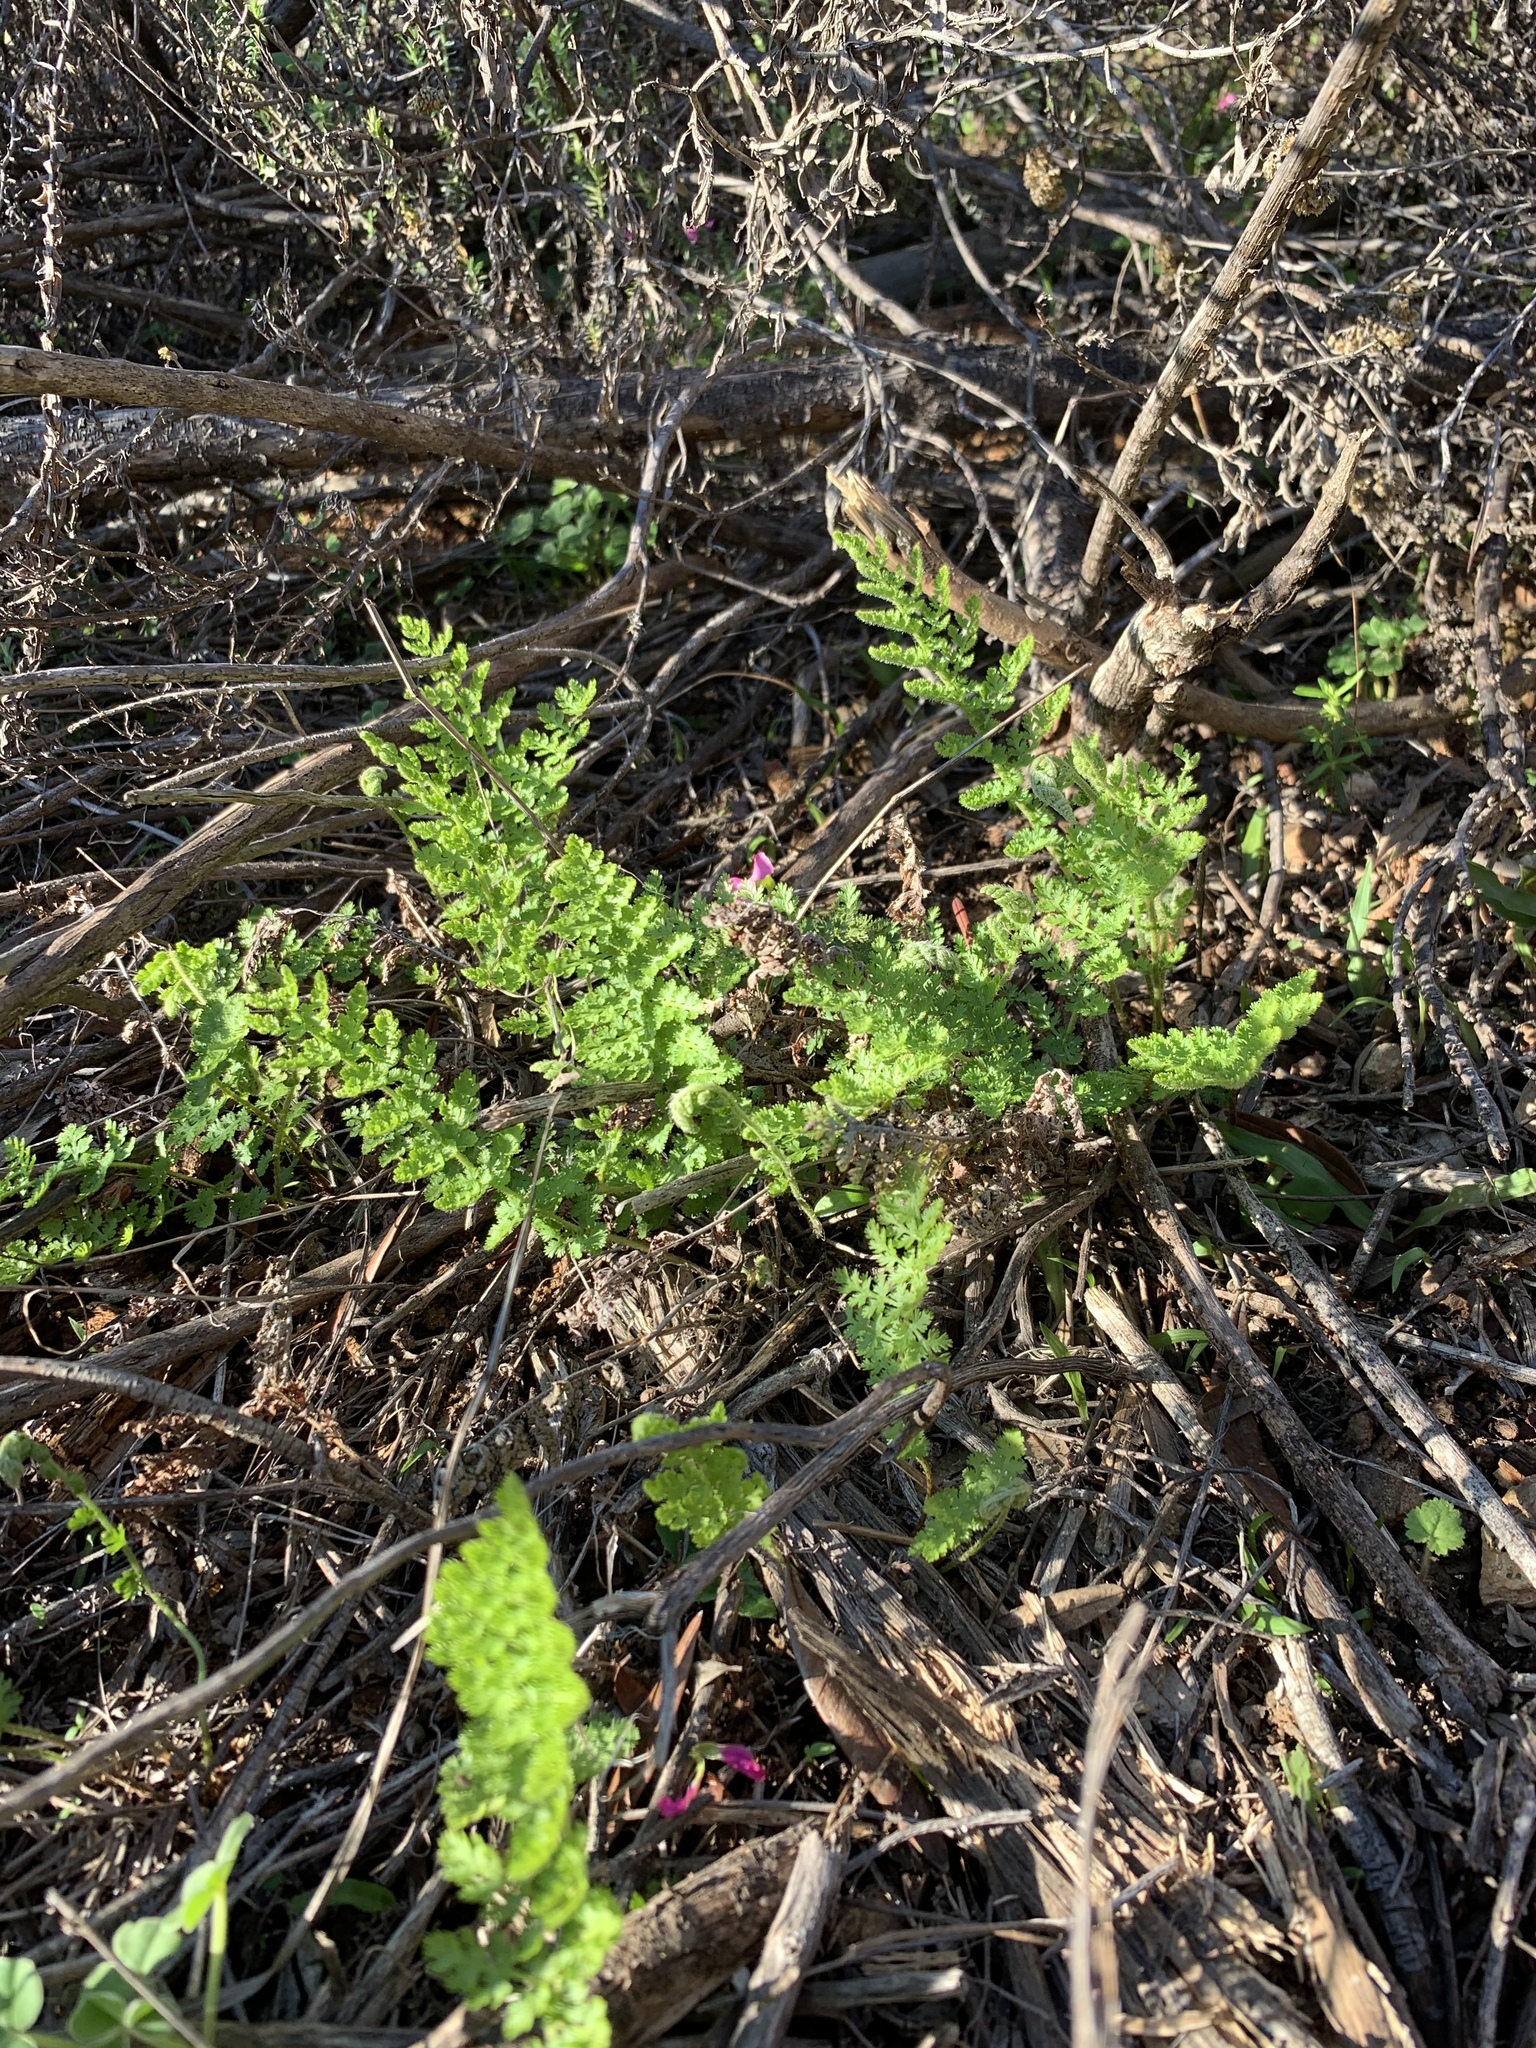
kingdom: Plantae
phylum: Tracheophyta
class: Polypodiopsida
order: Schizaeales
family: Anemiaceae
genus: Anemia
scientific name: Anemia caffrorum
